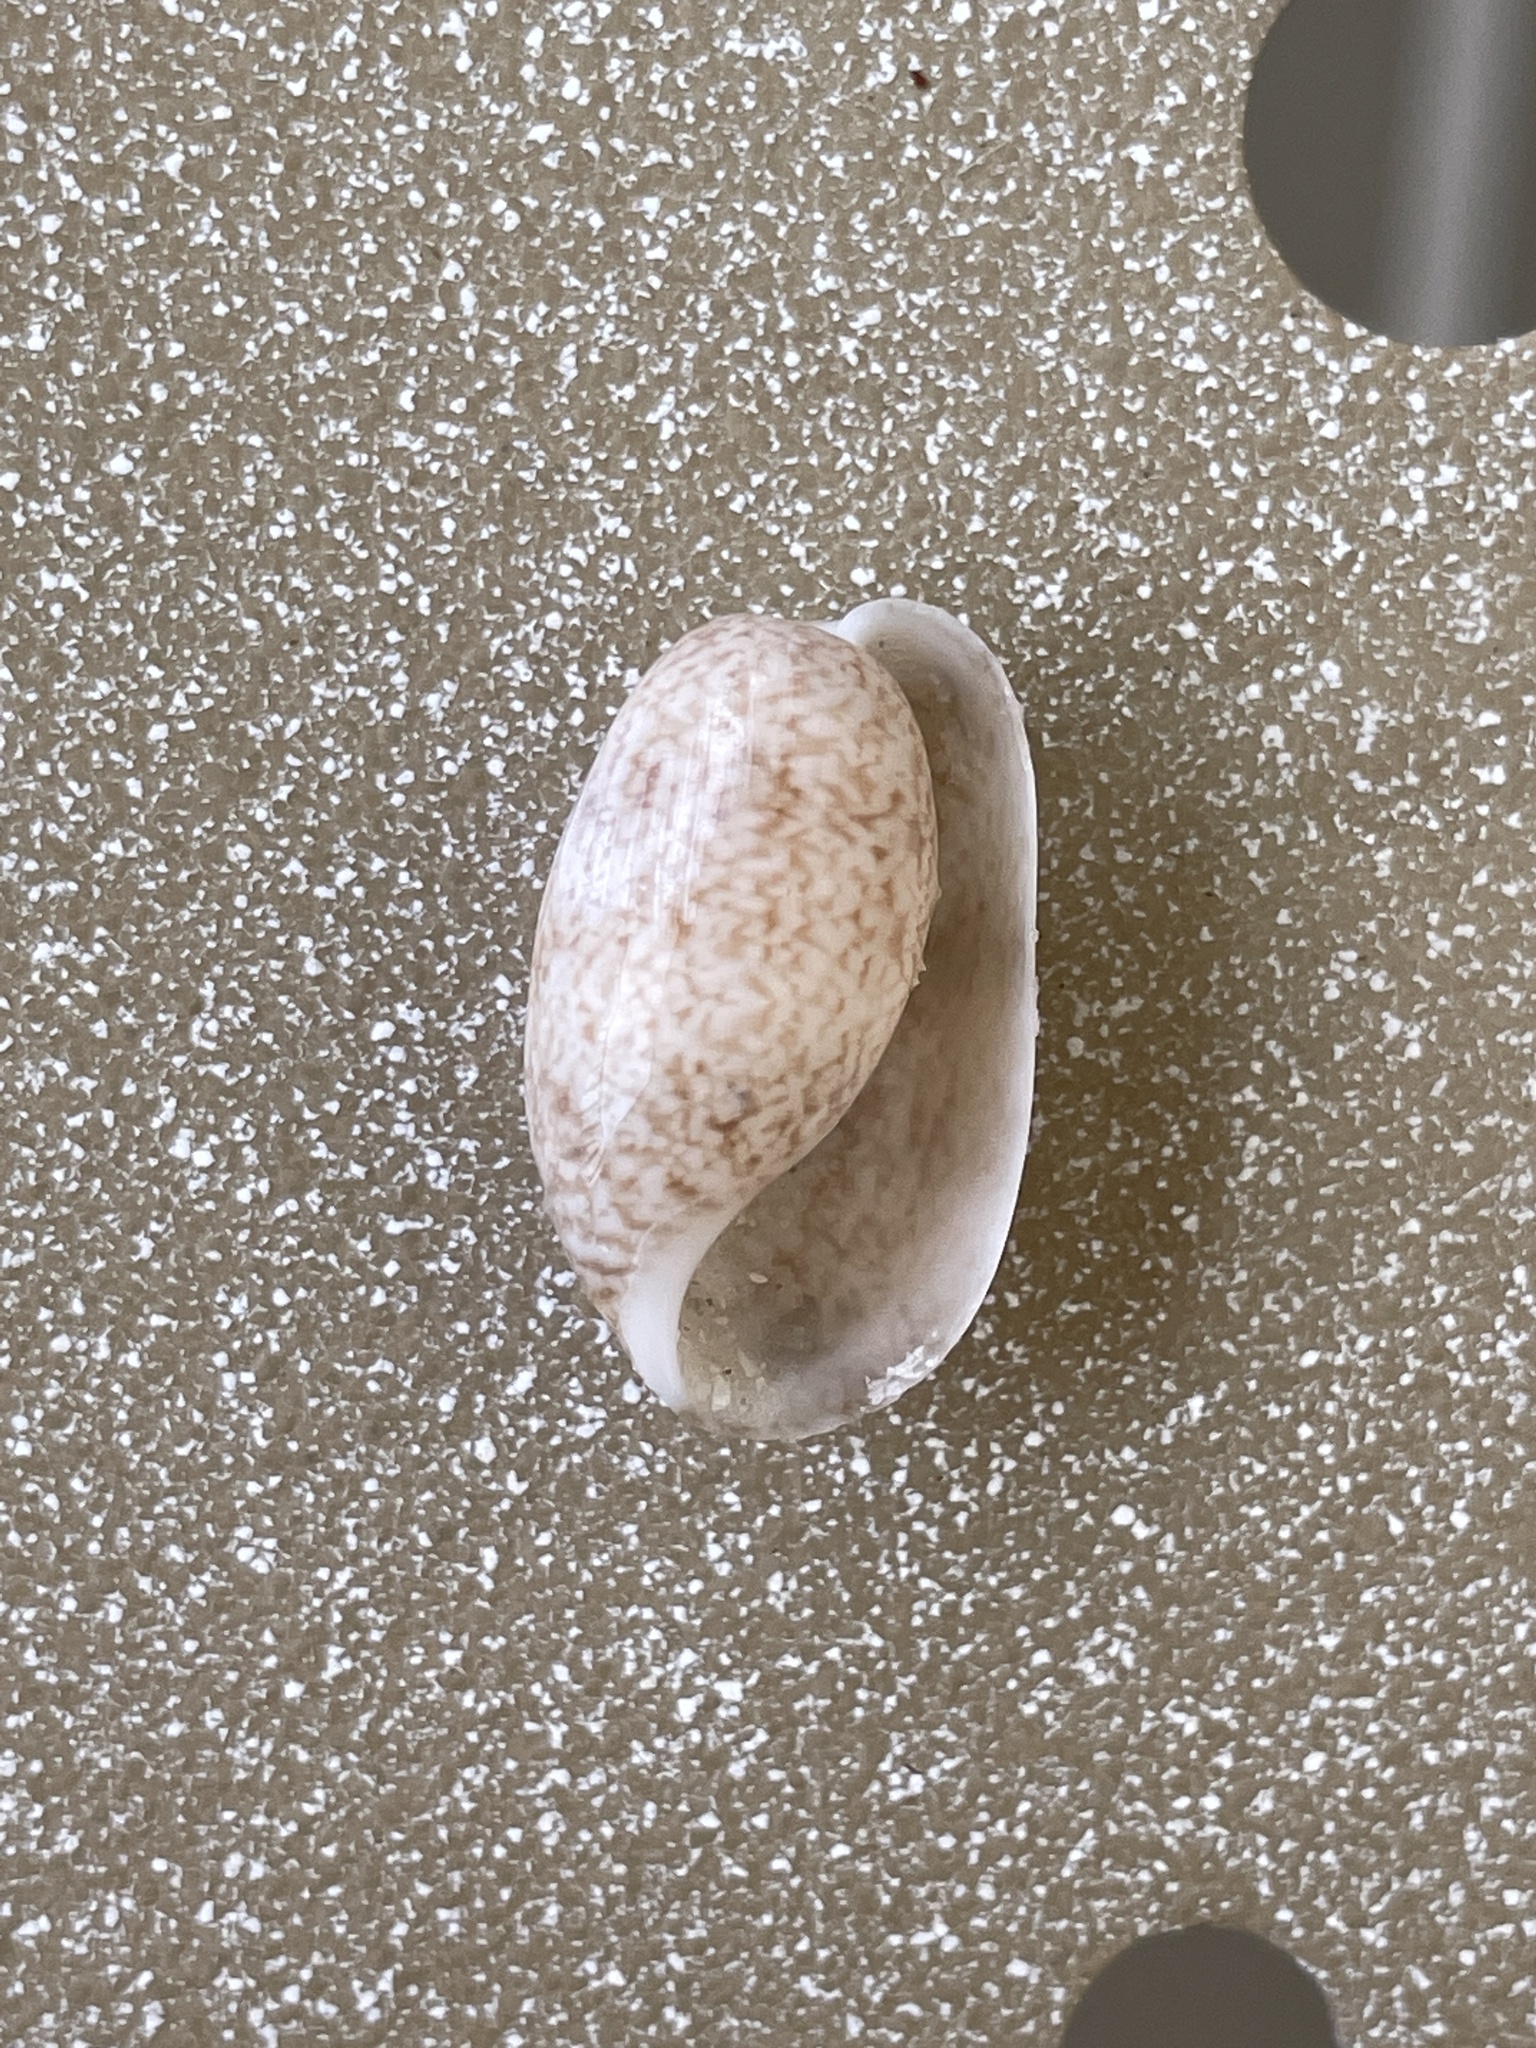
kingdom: Animalia
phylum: Mollusca
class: Gastropoda
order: Cephalaspidea
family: Bullidae
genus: Bulla
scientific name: Bulla occidentalis
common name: Common west-indian bubble
